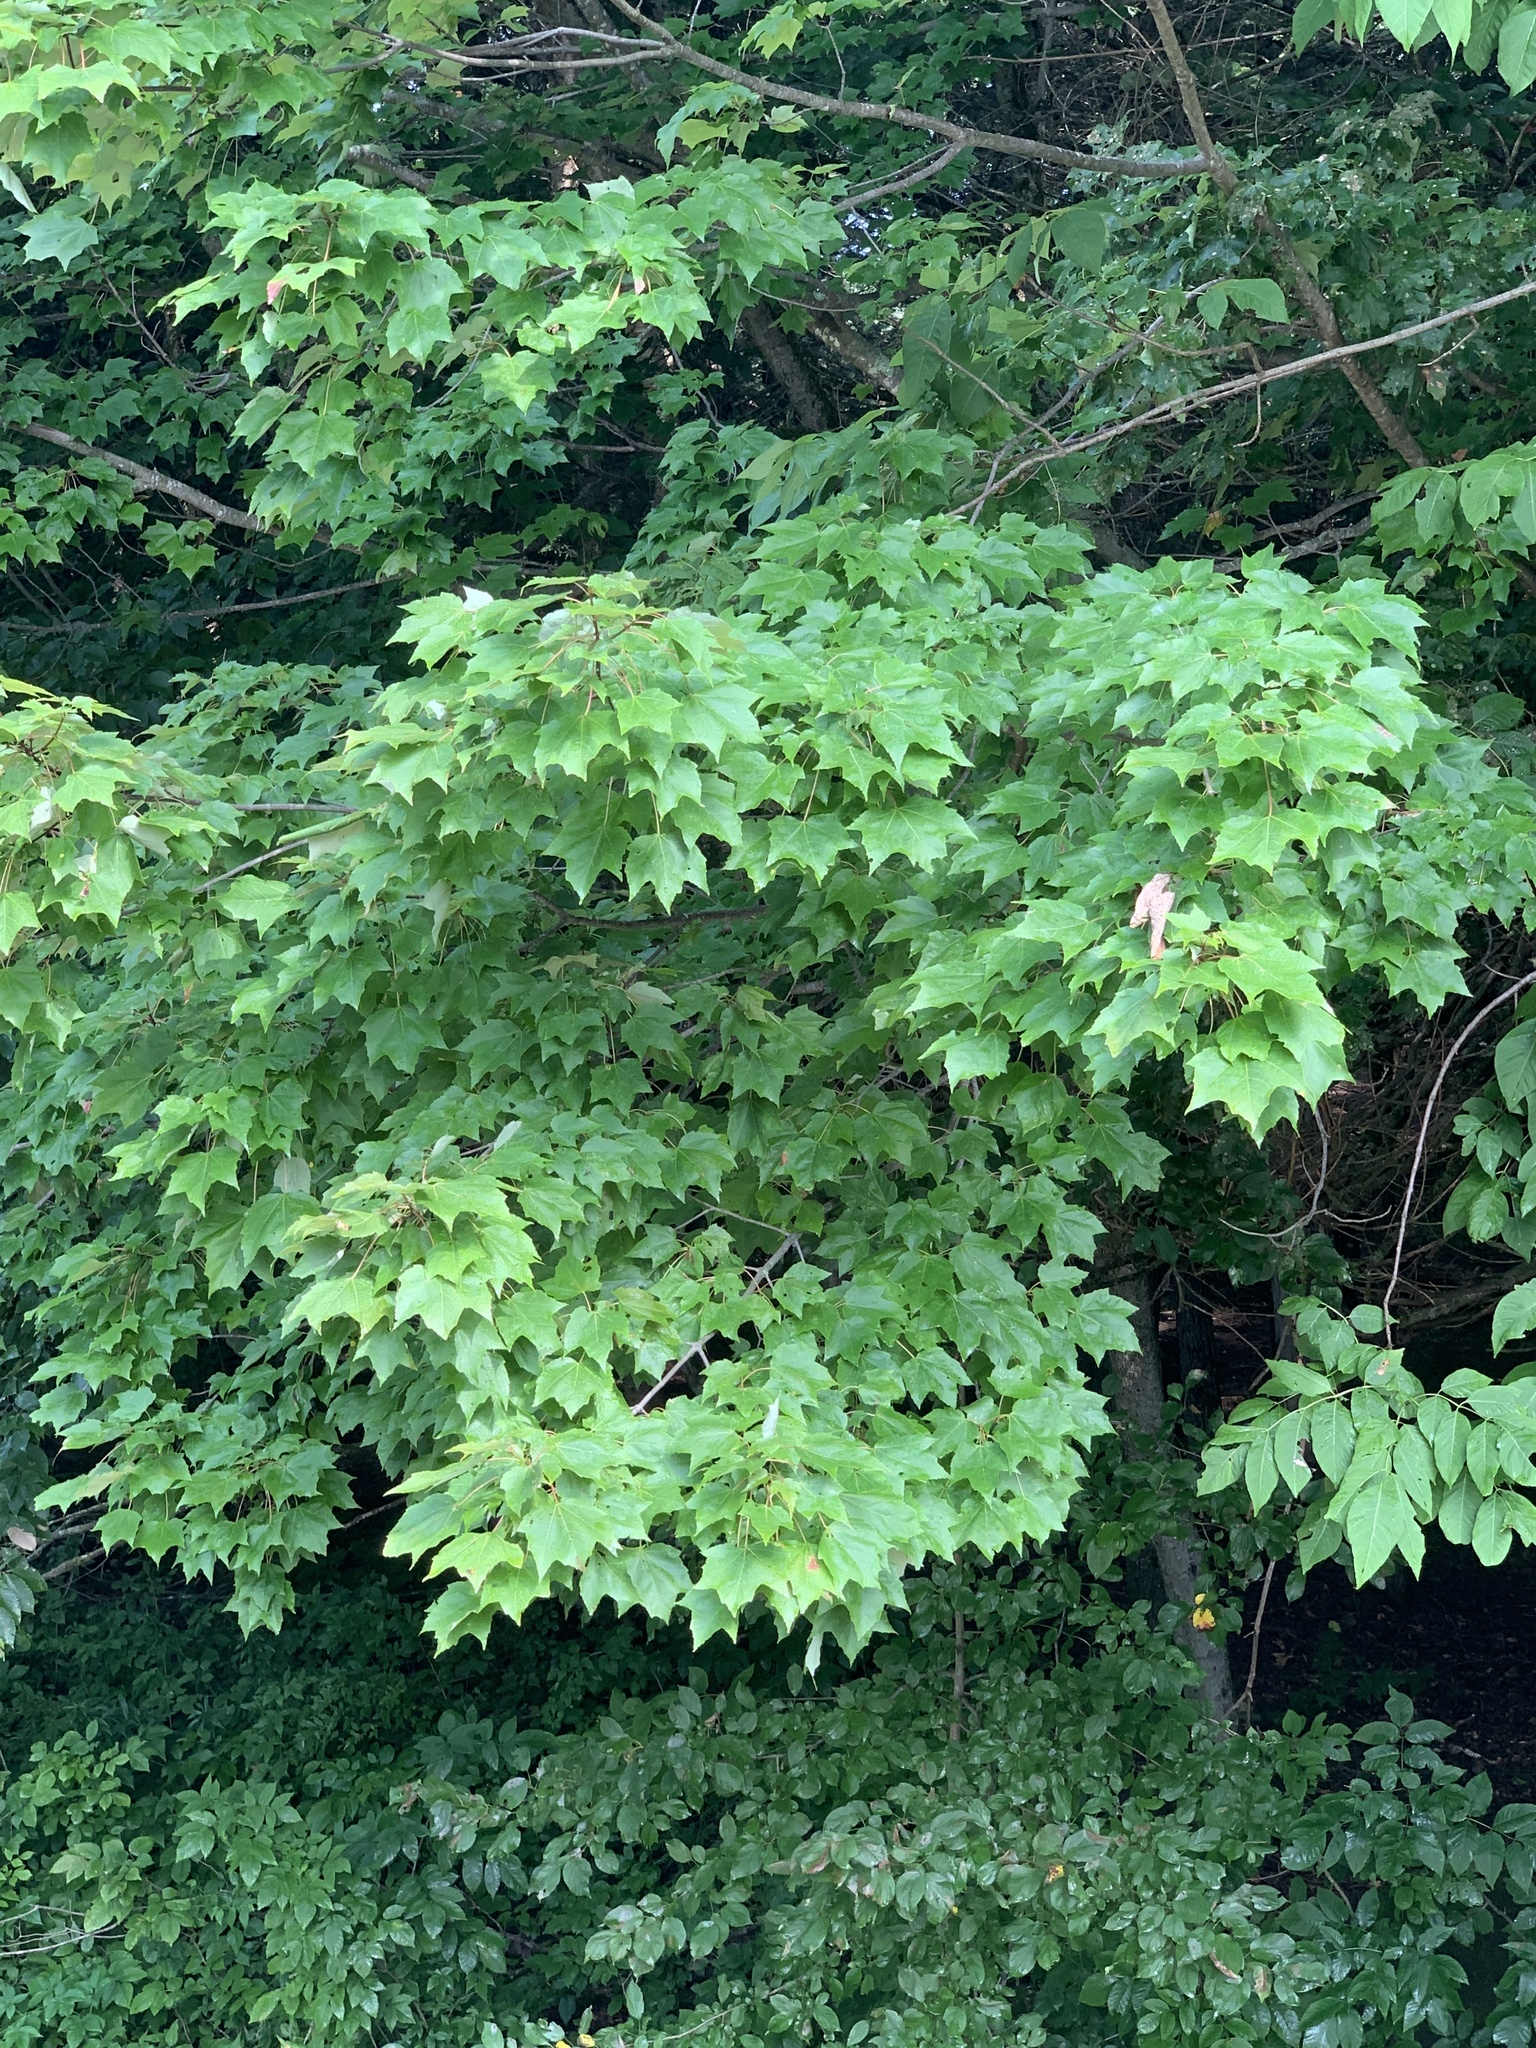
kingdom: Plantae
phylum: Tracheophyta
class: Magnoliopsida
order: Sapindales
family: Sapindaceae
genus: Acer
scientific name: Acer rubrum
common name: Red maple
